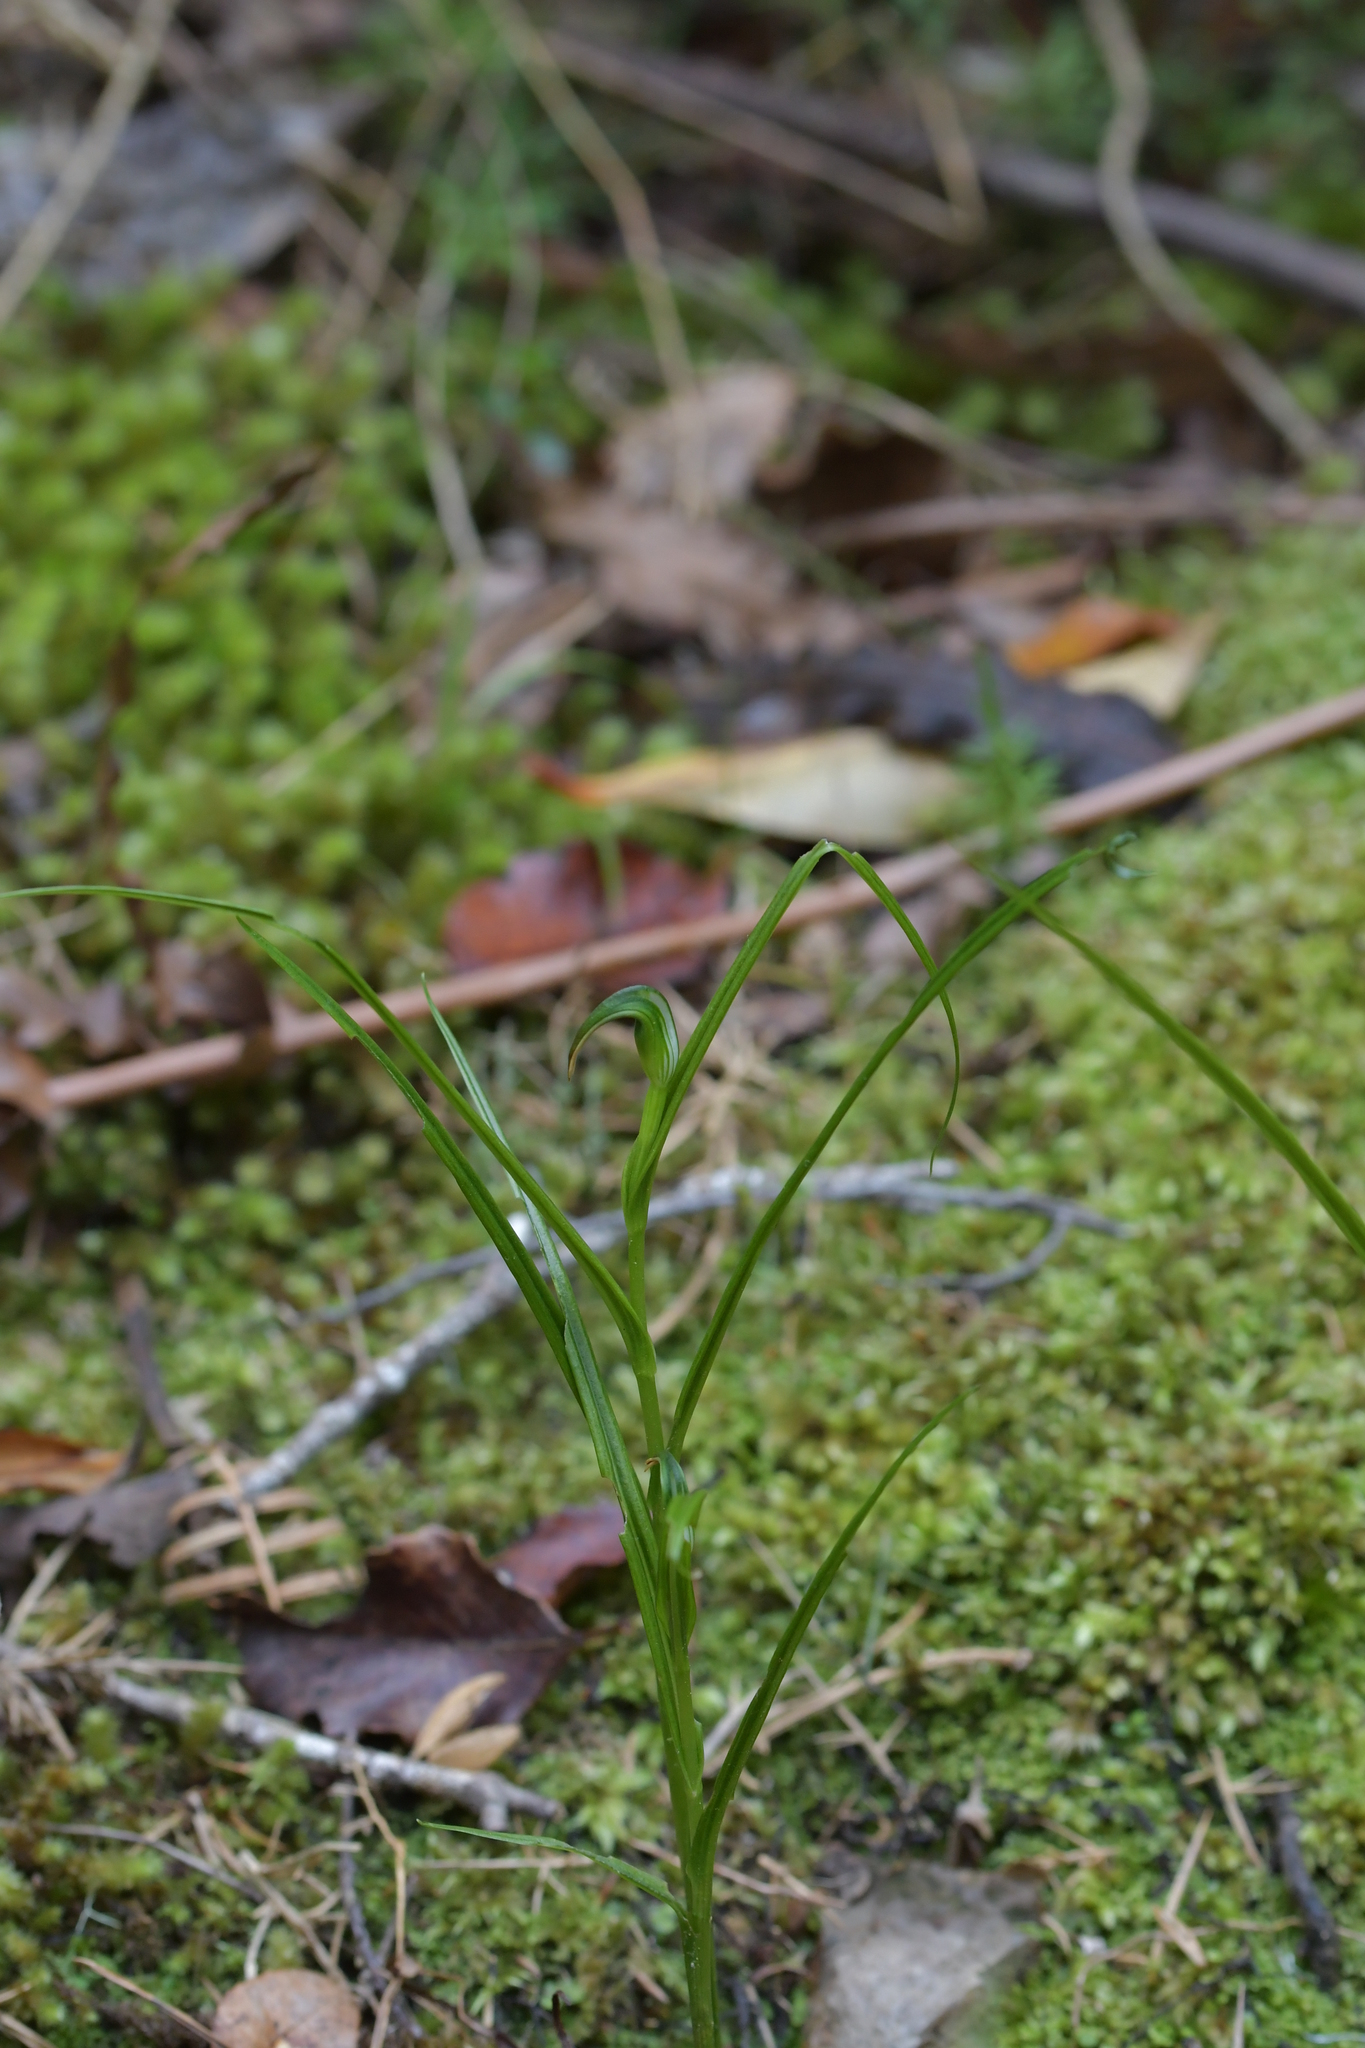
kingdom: Plantae
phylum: Tracheophyta
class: Liliopsida
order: Asparagales
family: Orchidaceae
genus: Pterostylis
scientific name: Pterostylis graminea
